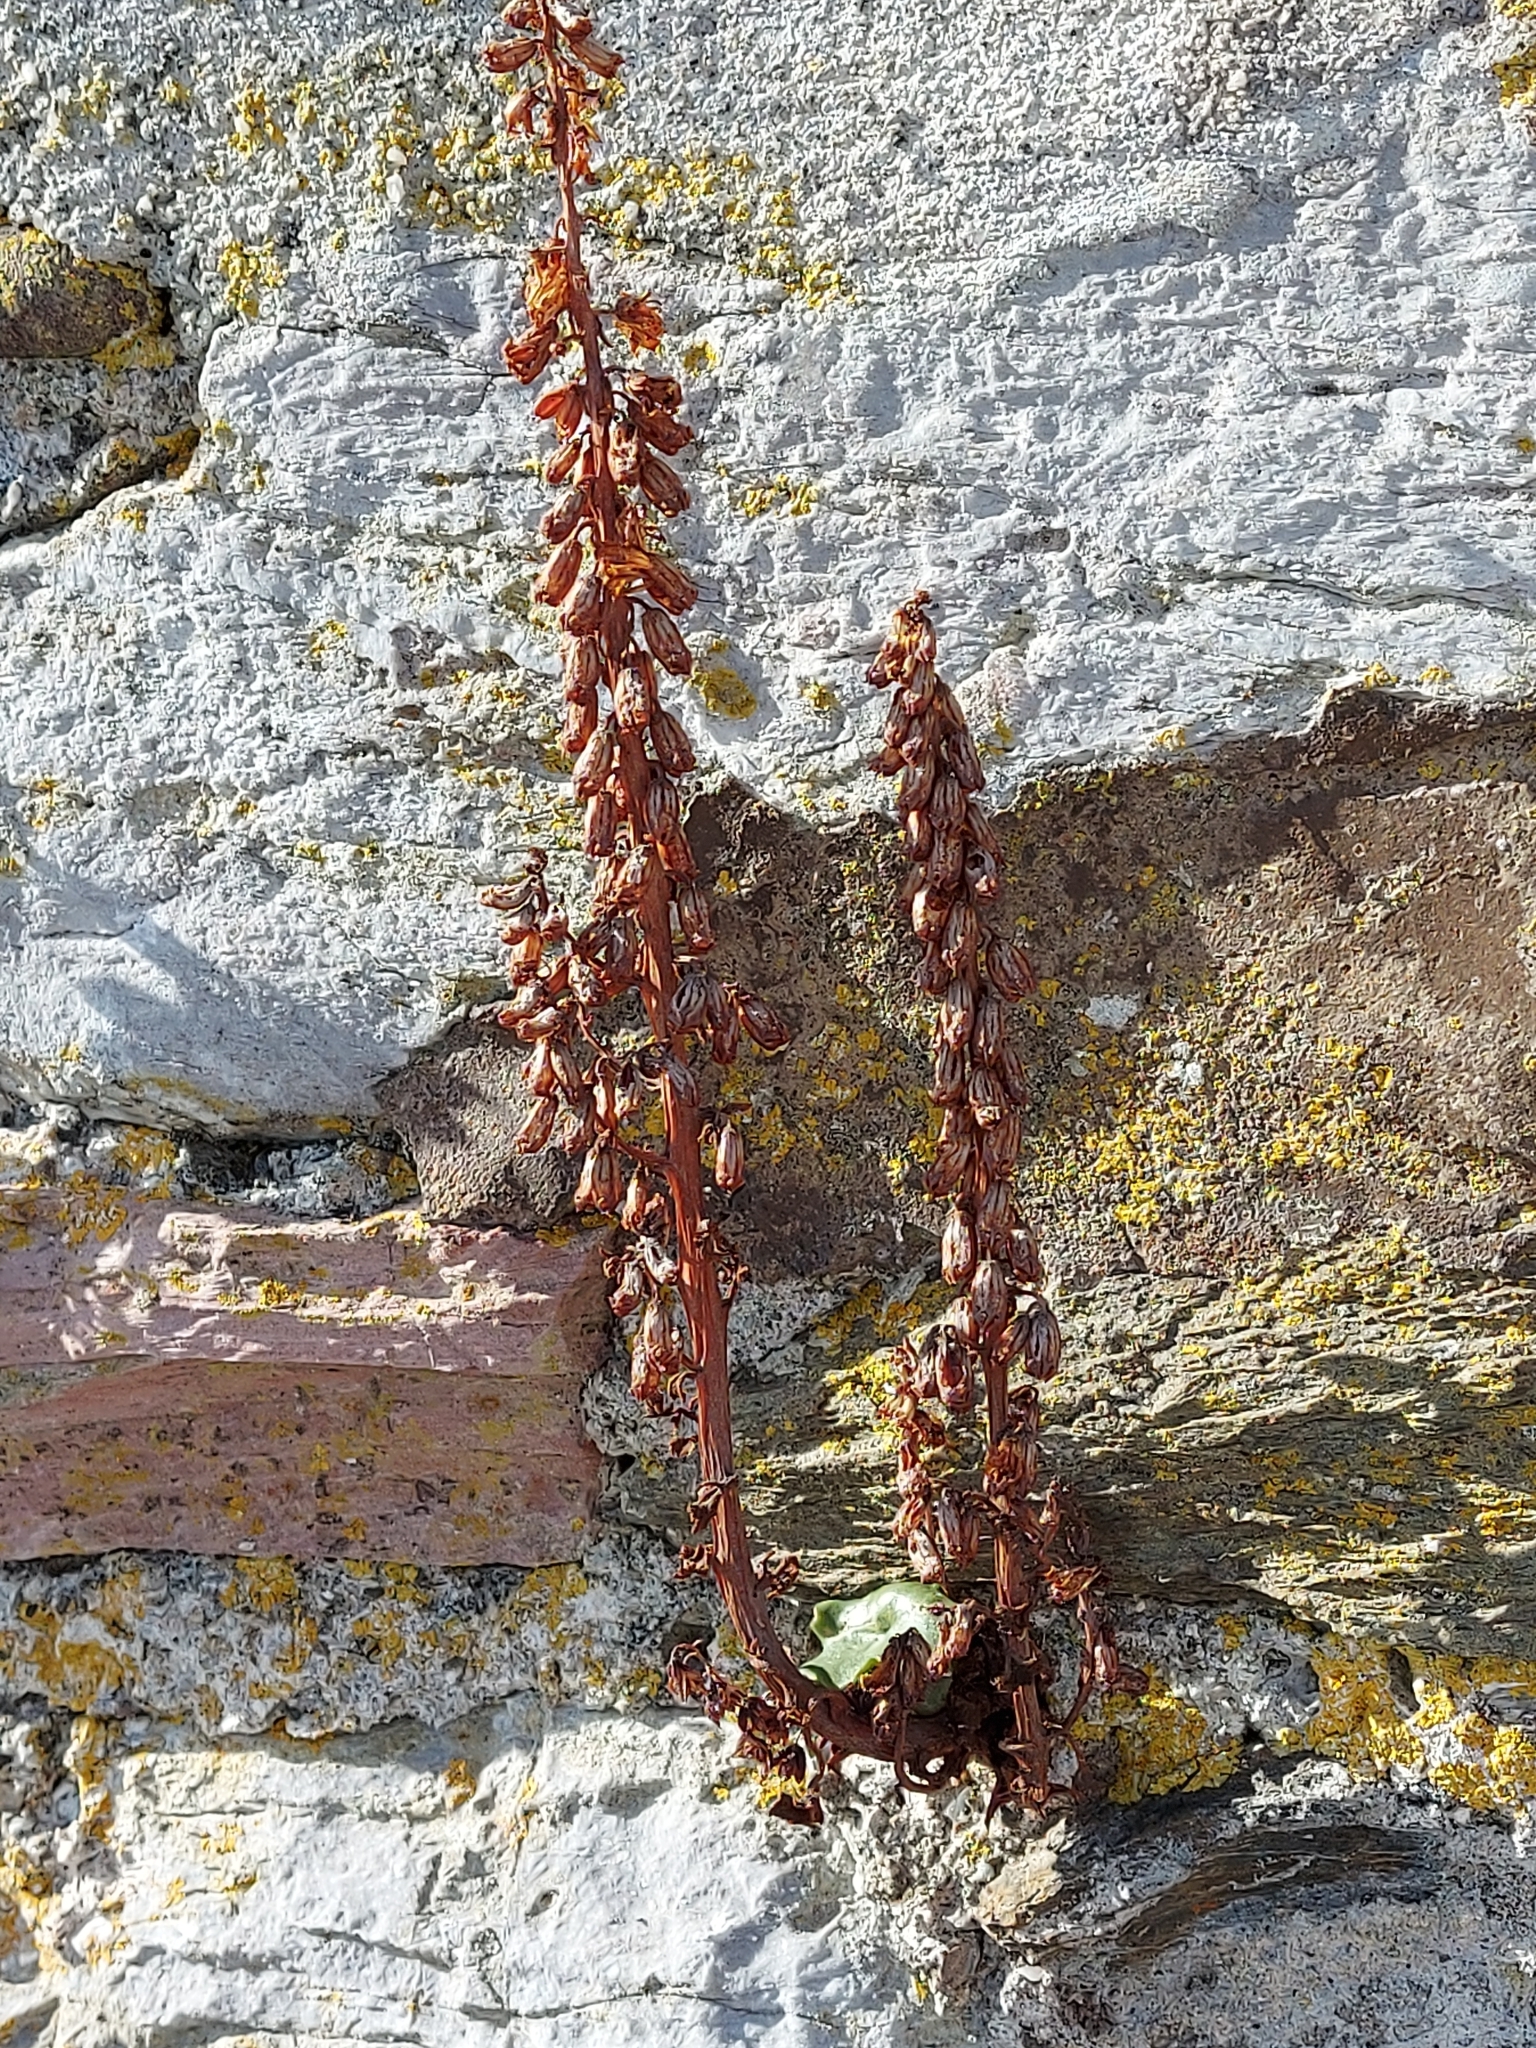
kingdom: Plantae
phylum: Tracheophyta
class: Magnoliopsida
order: Saxifragales
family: Crassulaceae
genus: Umbilicus
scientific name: Umbilicus rupestris
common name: Navelwort
